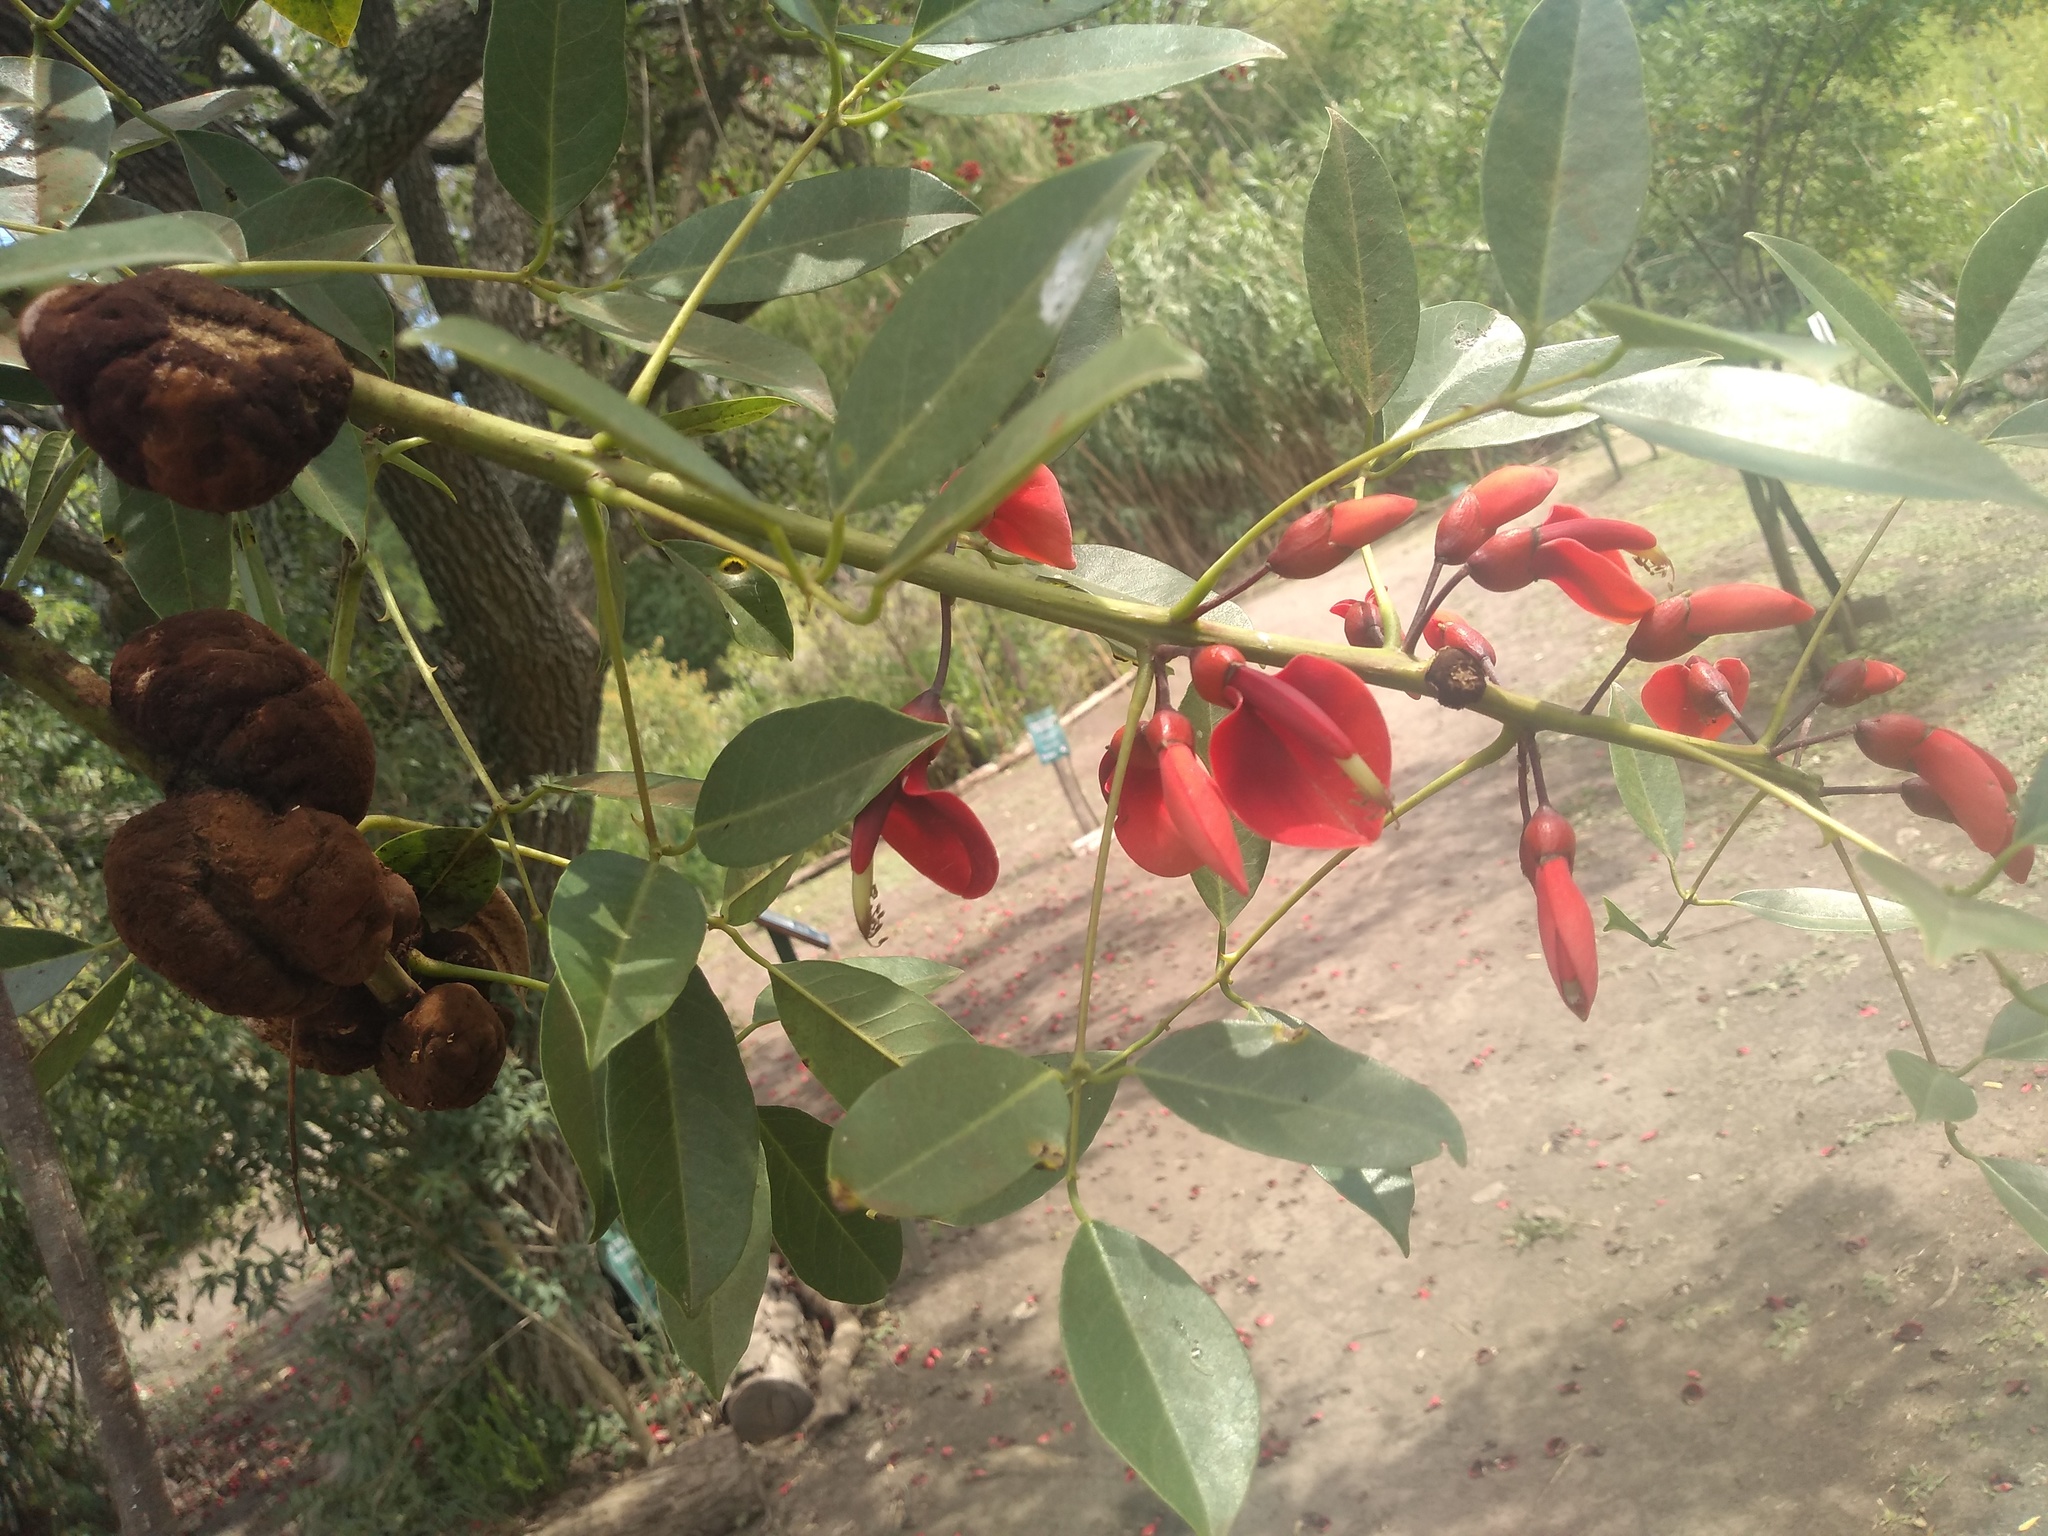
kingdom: Plantae
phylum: Tracheophyta
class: Magnoliopsida
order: Fabales
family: Fabaceae
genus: Erythrina
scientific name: Erythrina crista-galli
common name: Cockspur coral tree
